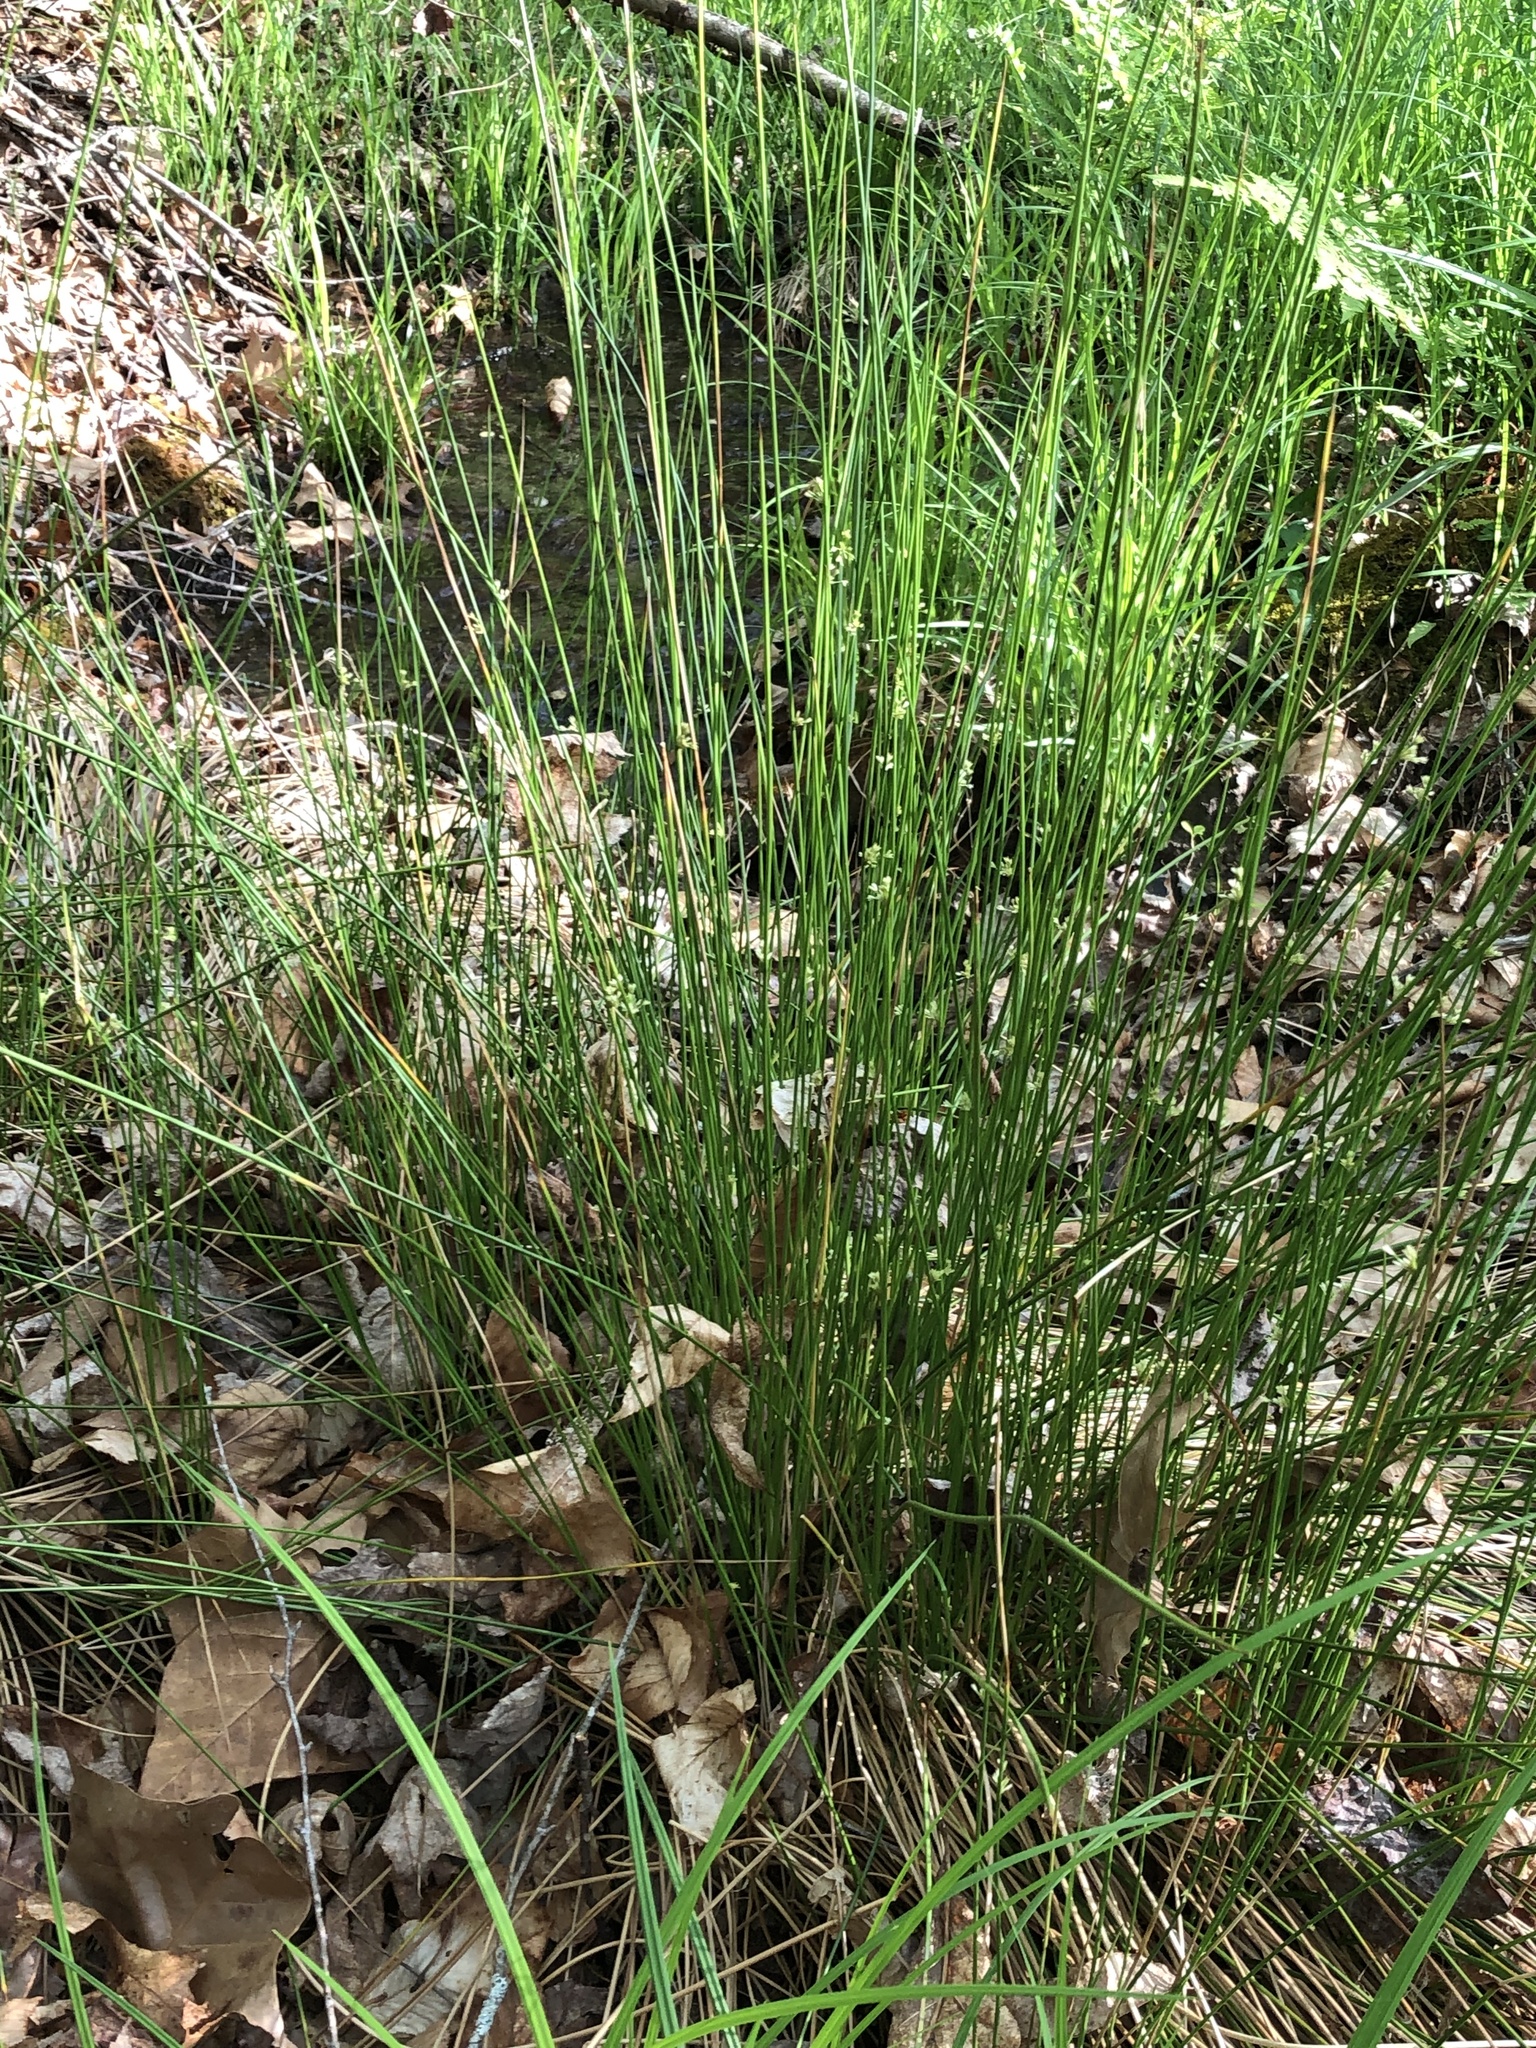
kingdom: Plantae
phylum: Tracheophyta
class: Liliopsida
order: Poales
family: Juncaceae
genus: Juncus
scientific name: Juncus effusus
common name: Soft rush
